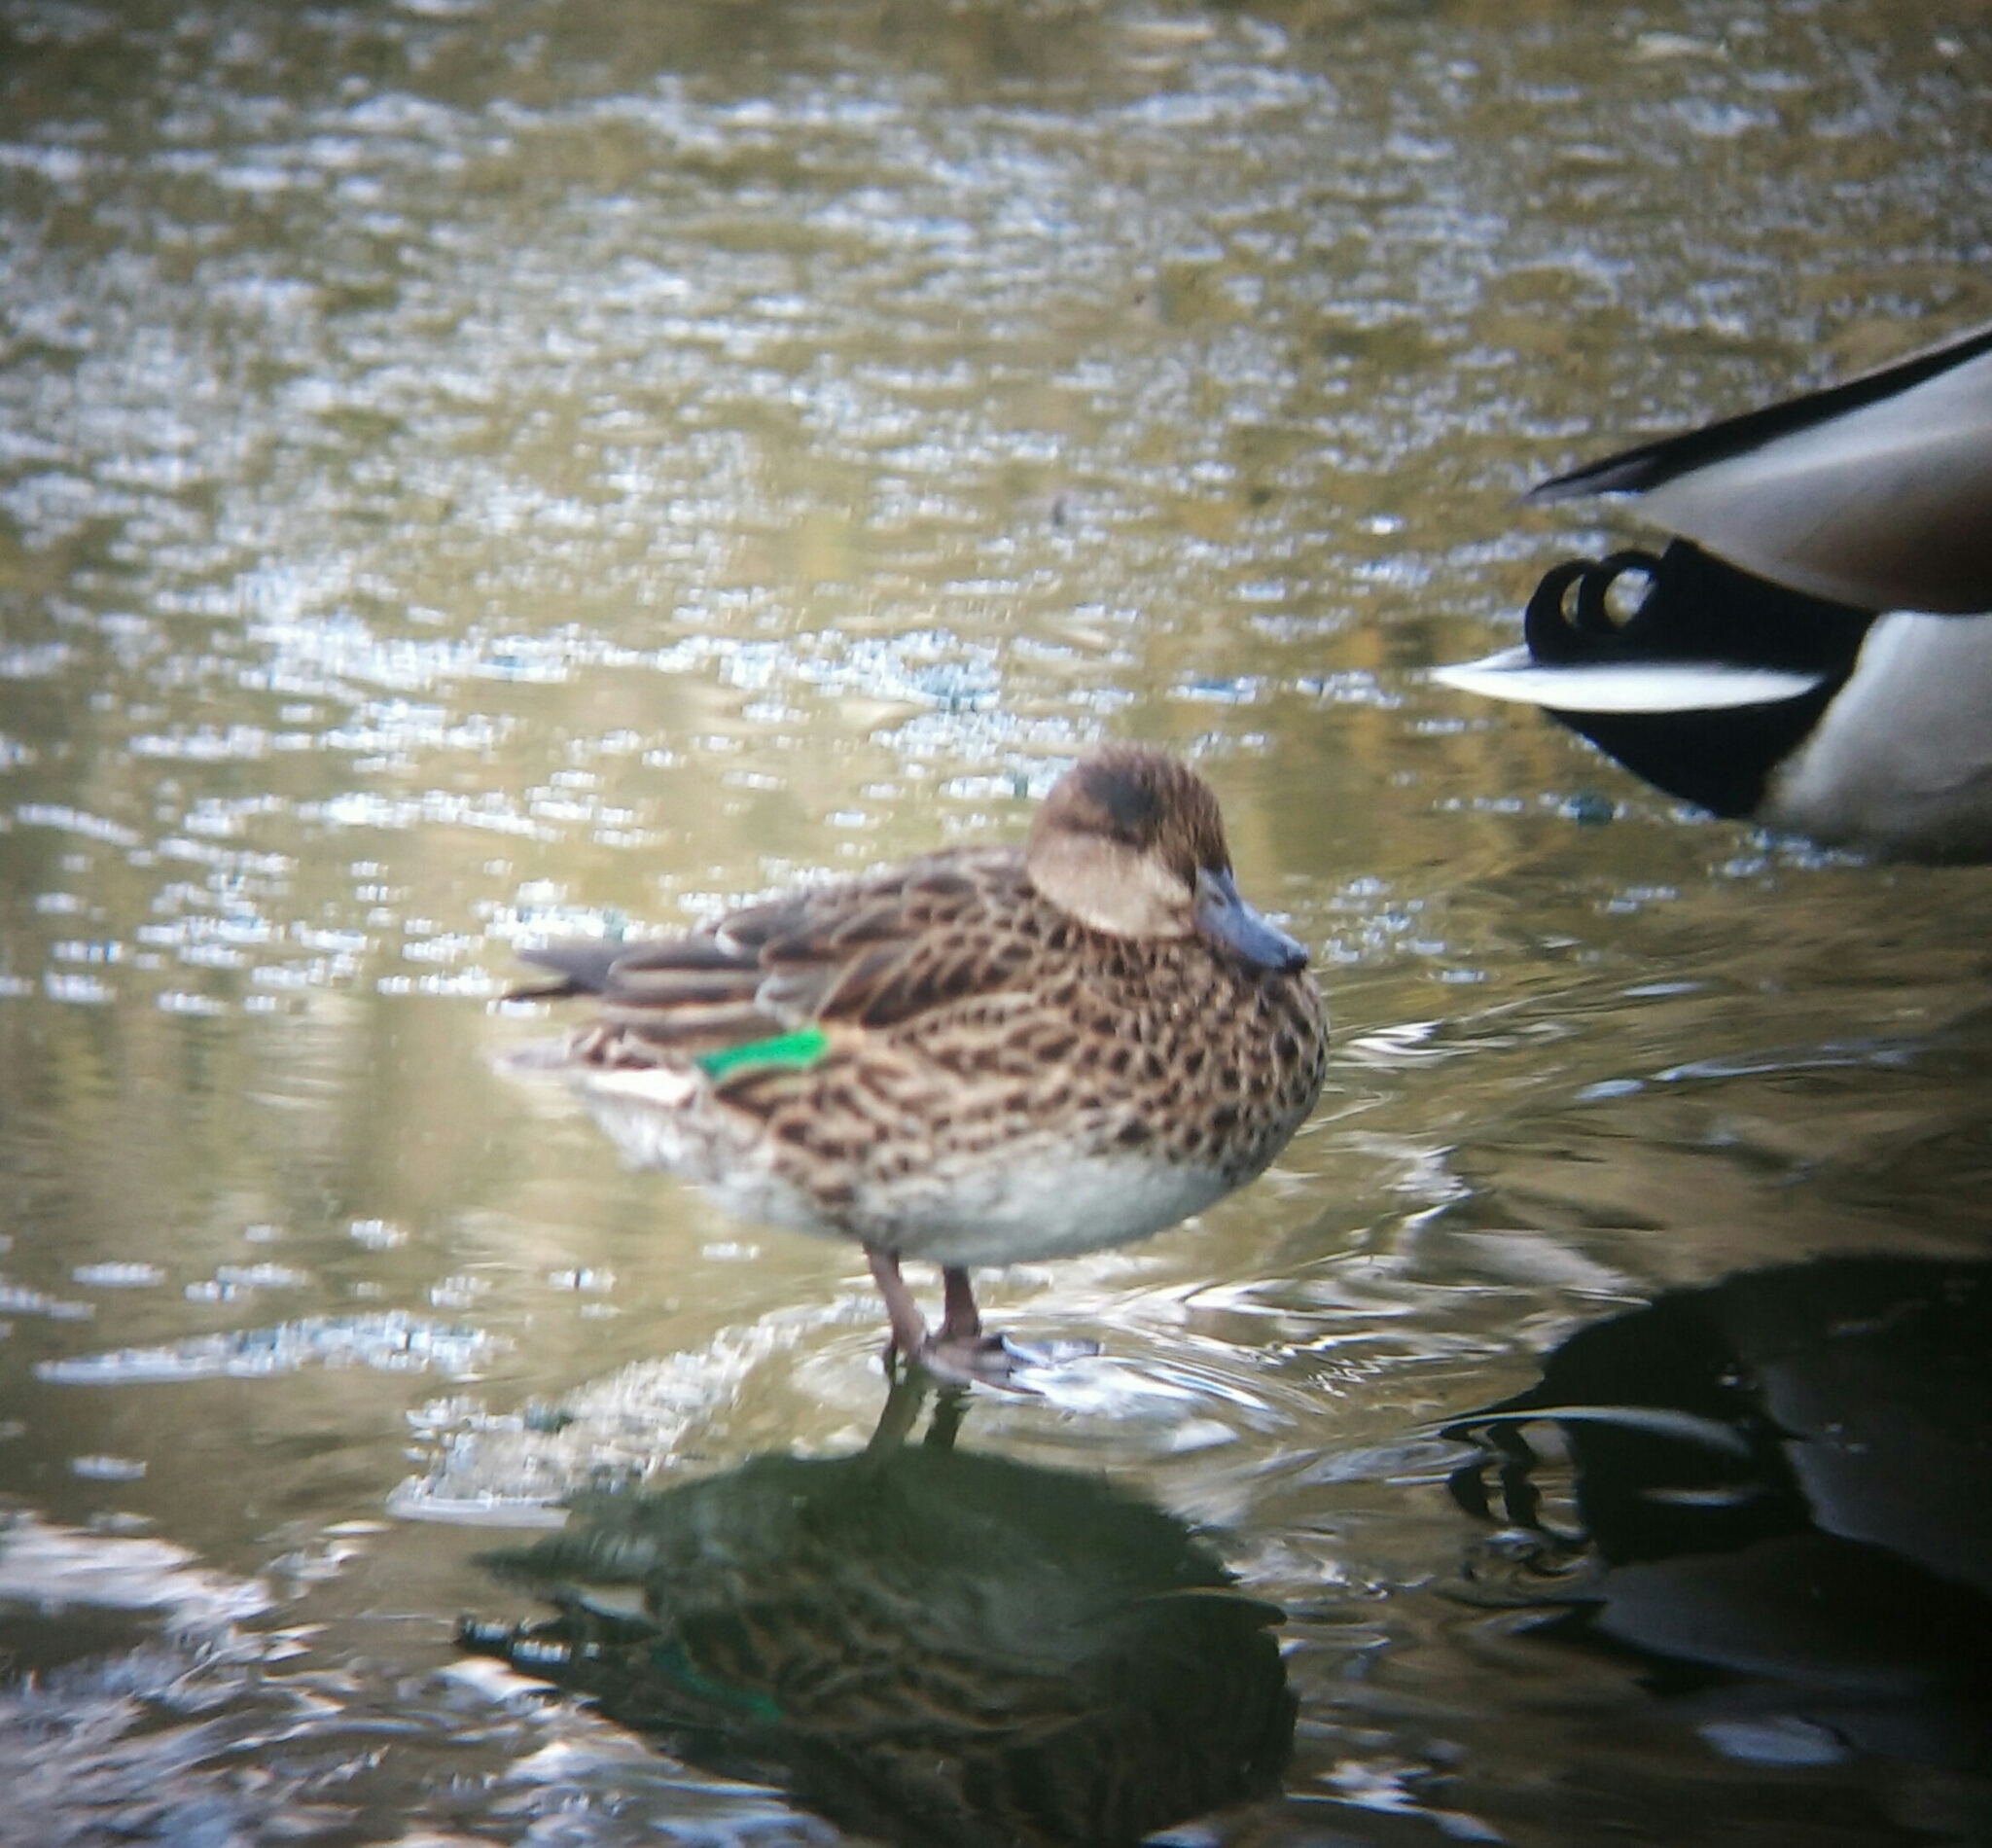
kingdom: Animalia
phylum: Chordata
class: Aves
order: Anseriformes
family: Anatidae
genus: Anas
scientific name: Anas crecca
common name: Eurasian teal
